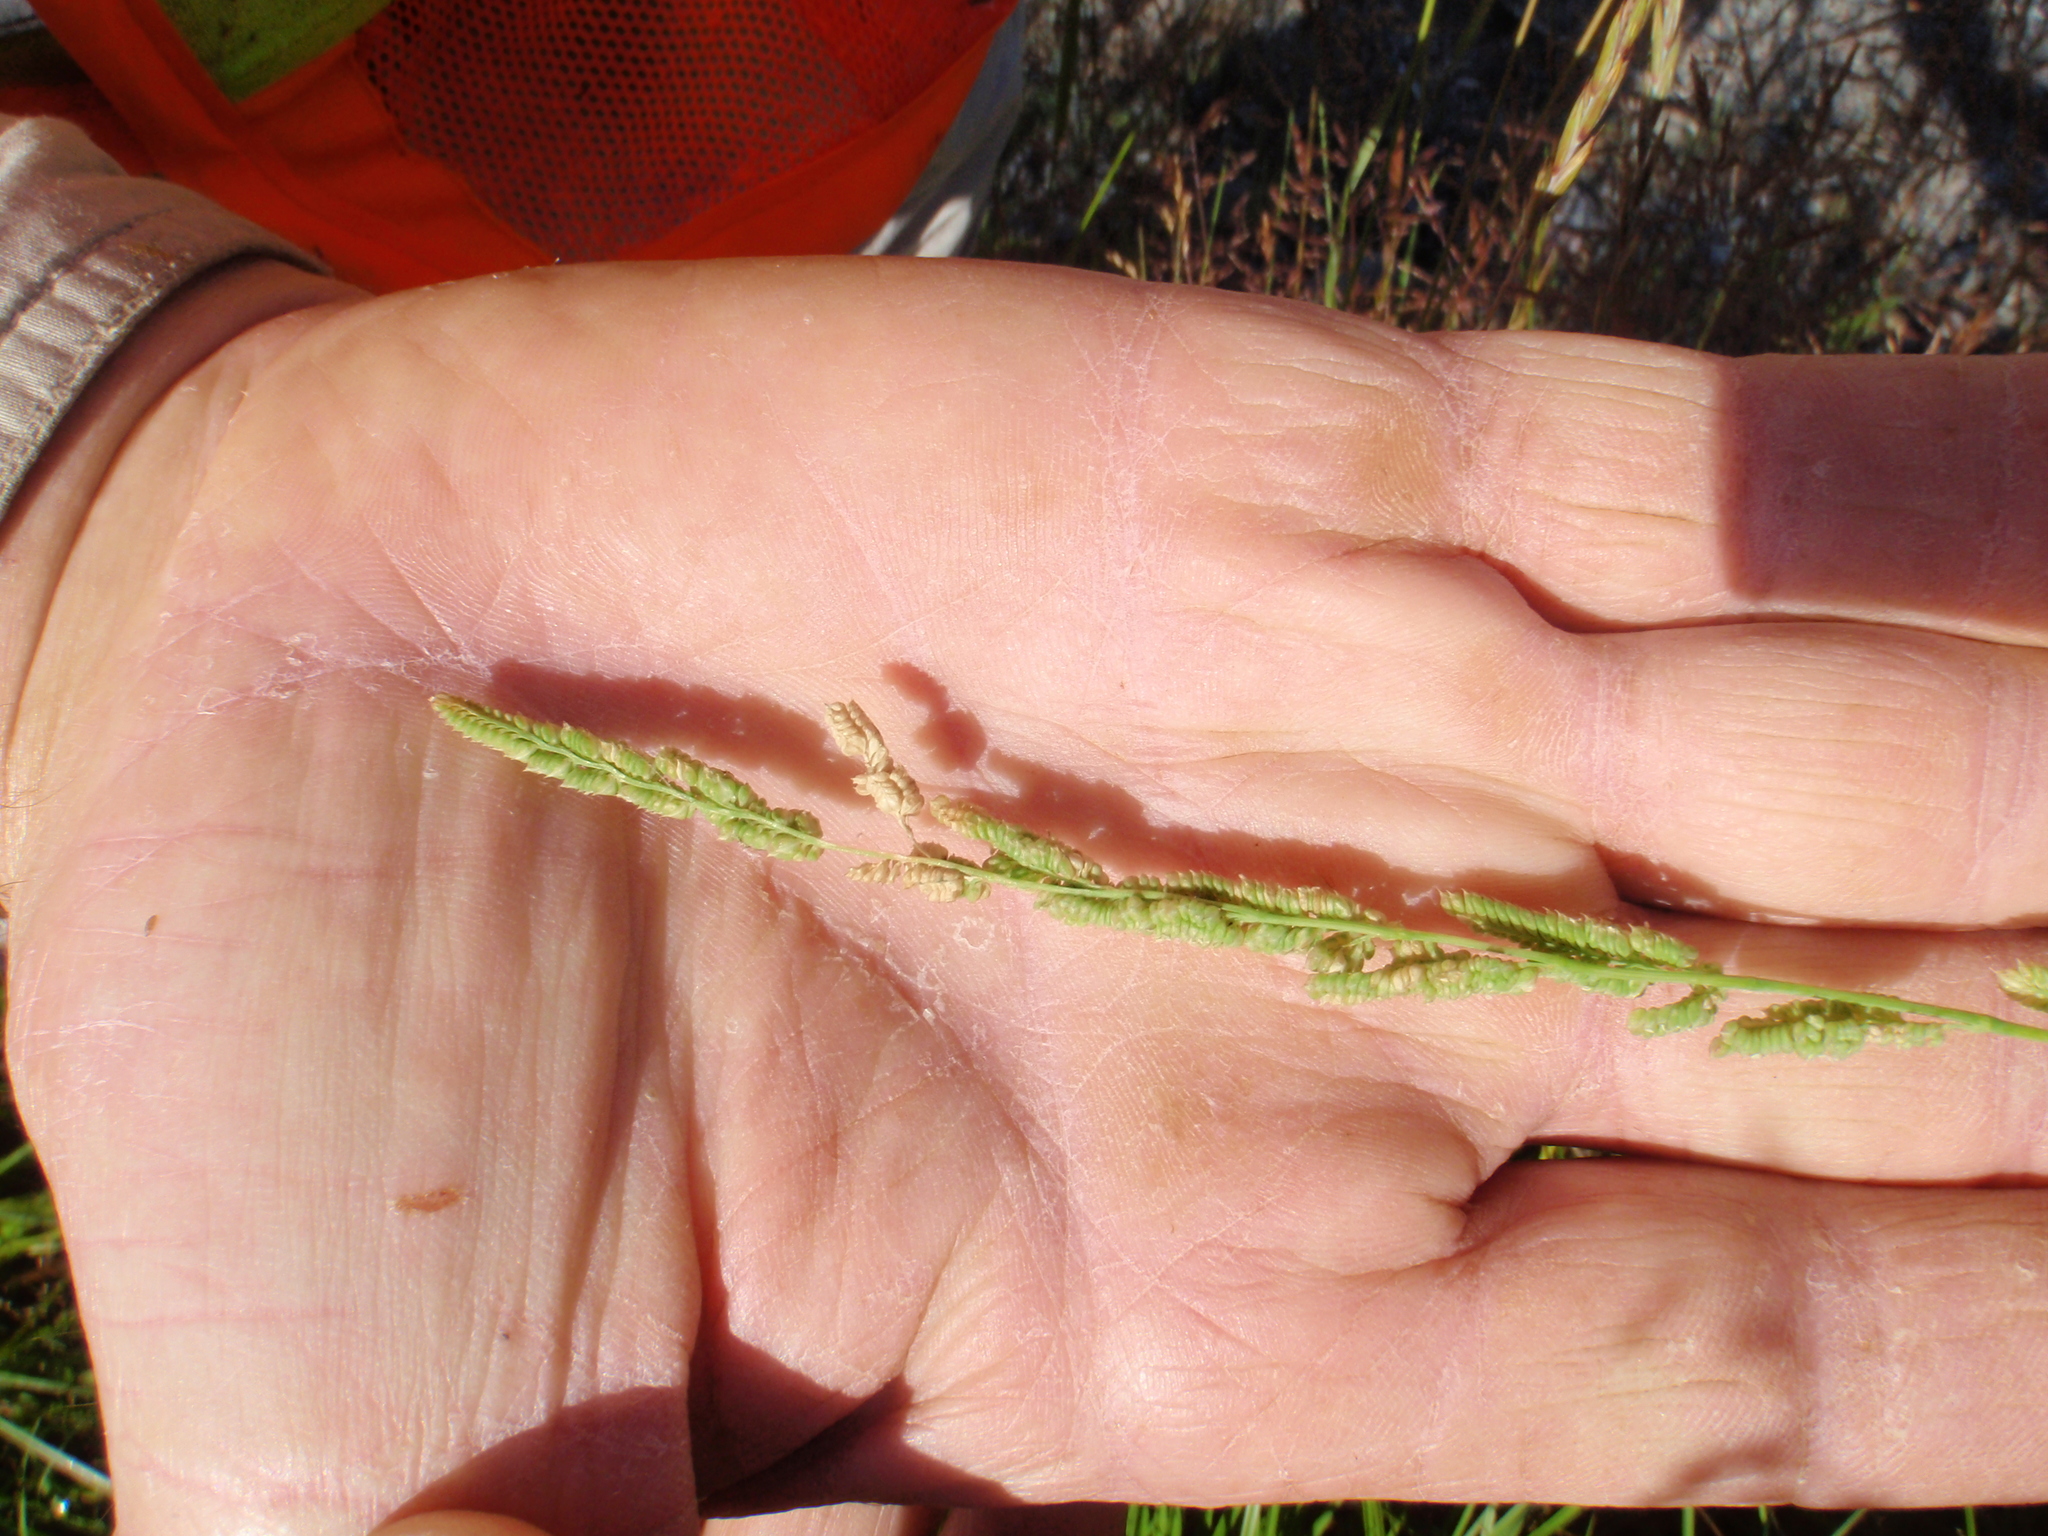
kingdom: Plantae
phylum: Tracheophyta
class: Liliopsida
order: Poales
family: Poaceae
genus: Beckmannia
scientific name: Beckmannia syzigachne
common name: American slough-grass
